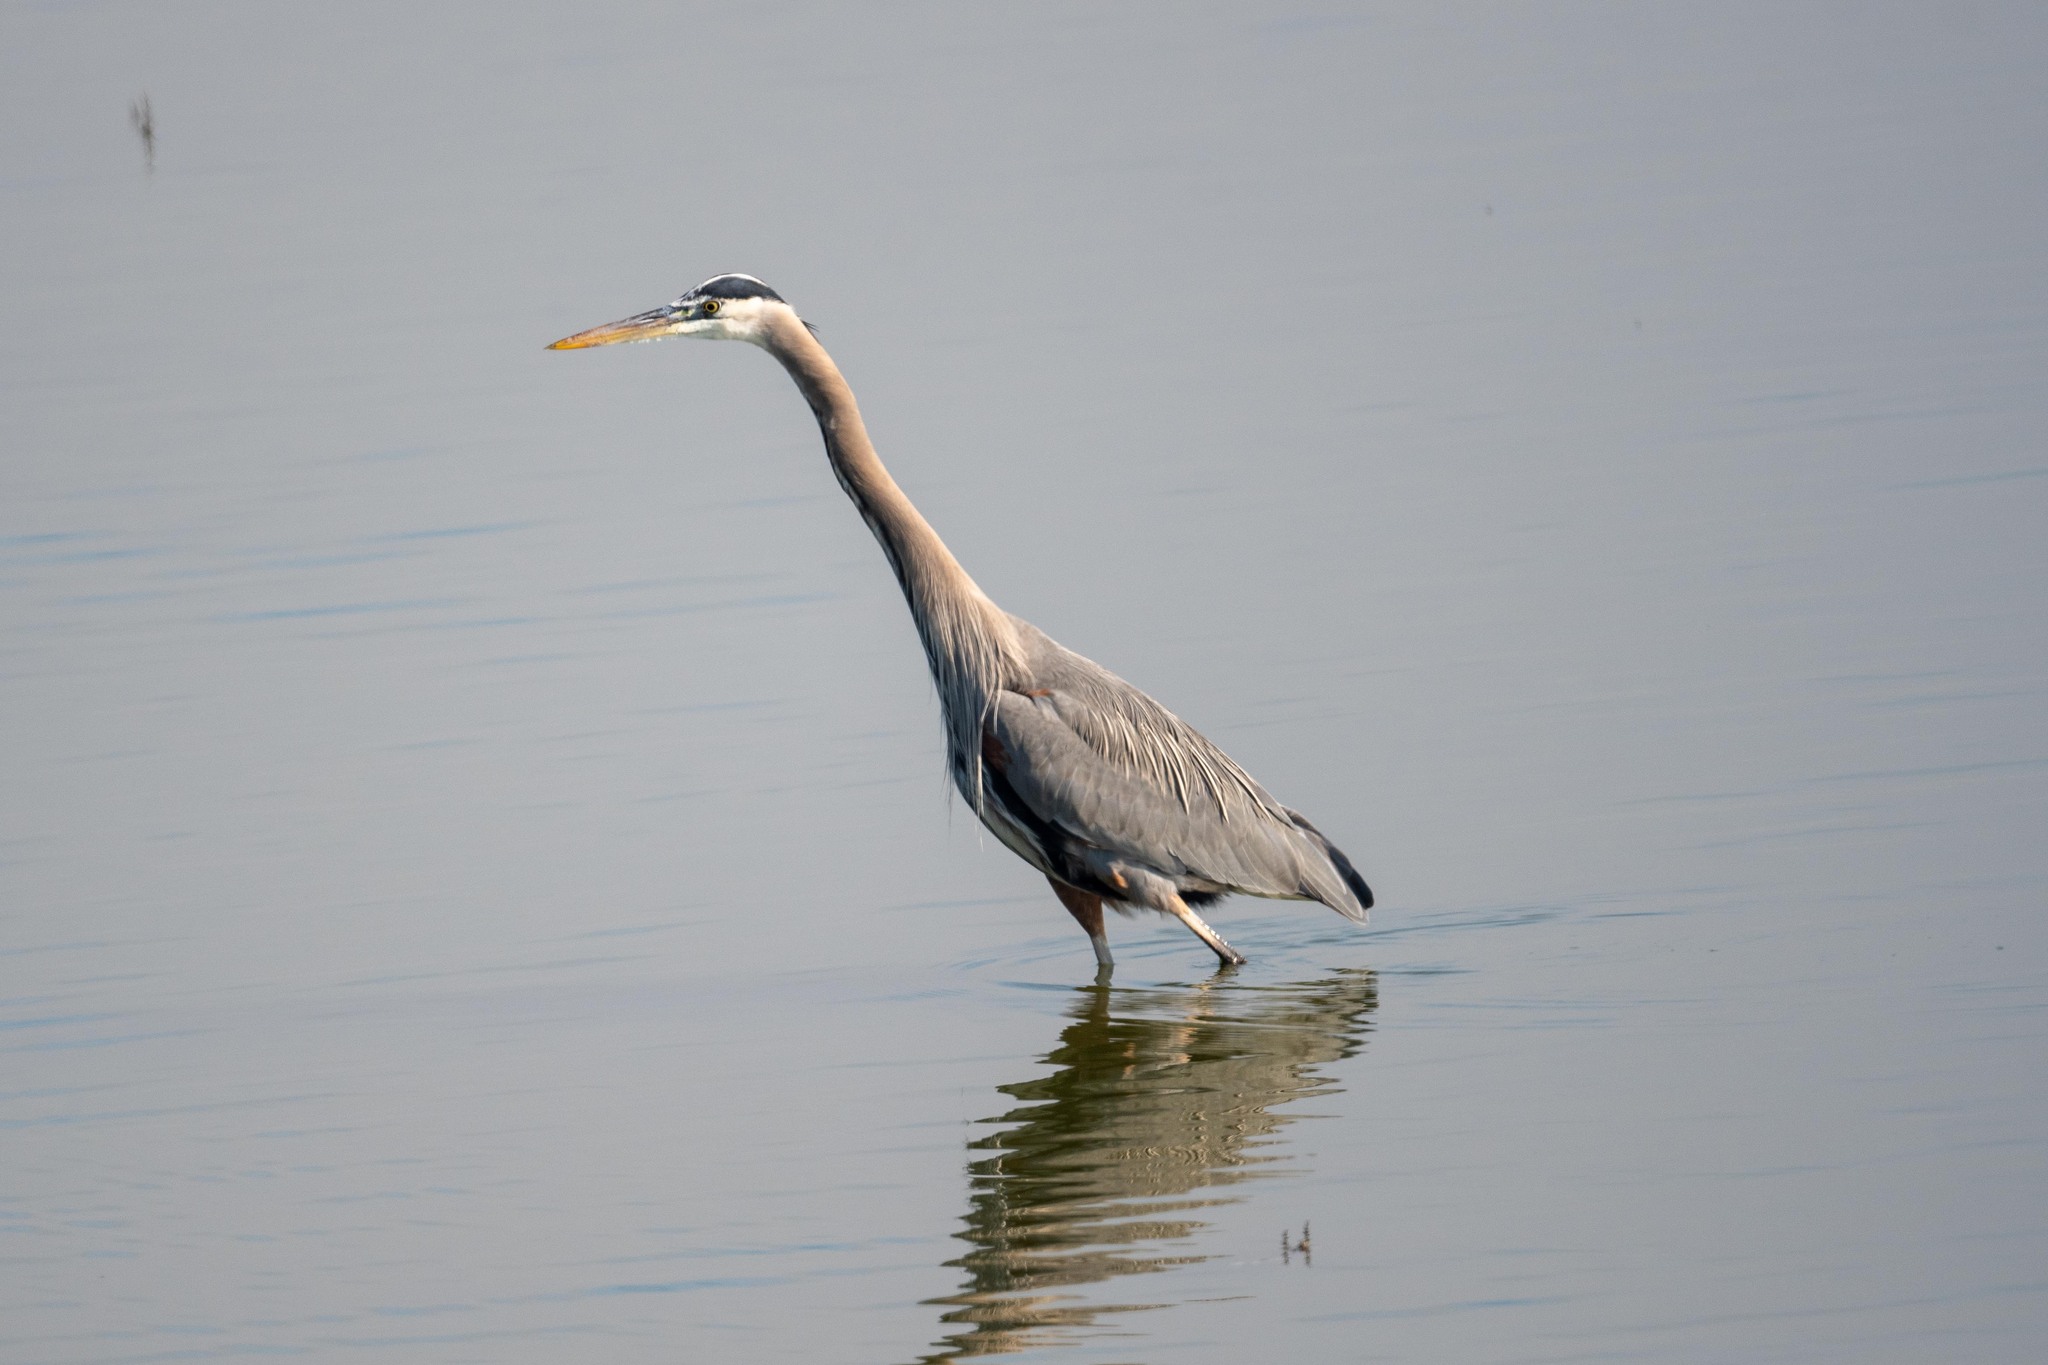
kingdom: Animalia
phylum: Chordata
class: Aves
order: Pelecaniformes
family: Ardeidae
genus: Ardea
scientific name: Ardea herodias
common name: Great blue heron
